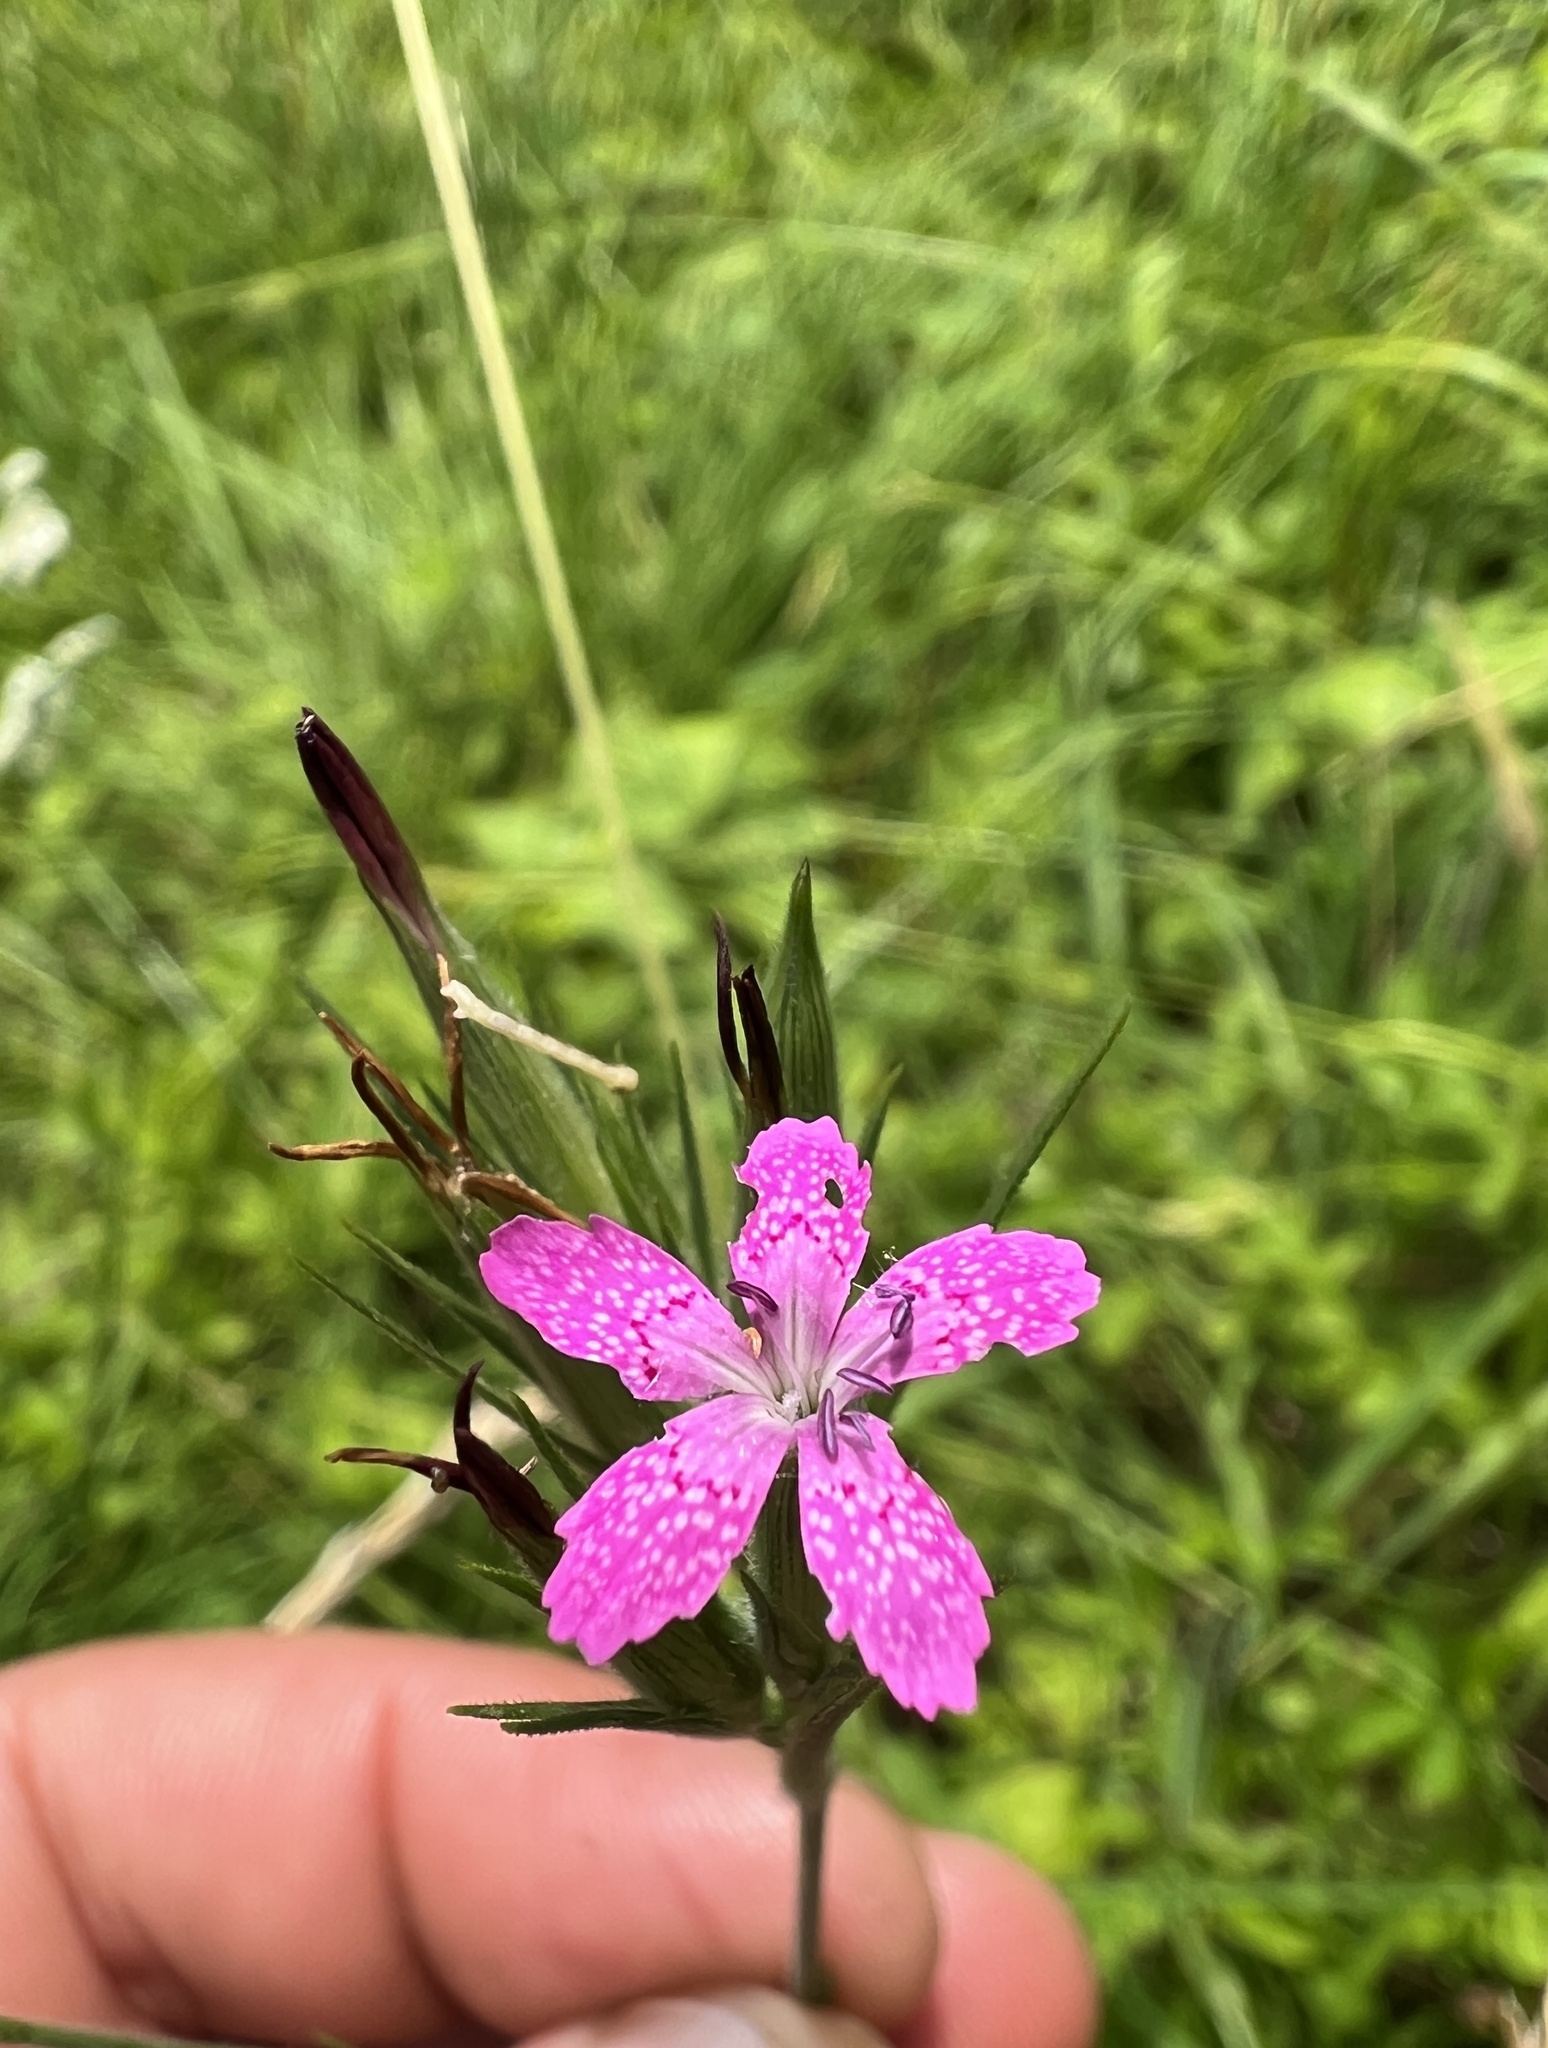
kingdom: Plantae
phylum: Tracheophyta
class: Magnoliopsida
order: Caryophyllales
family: Caryophyllaceae
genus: Dianthus
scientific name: Dianthus armeria
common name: Deptford pink
